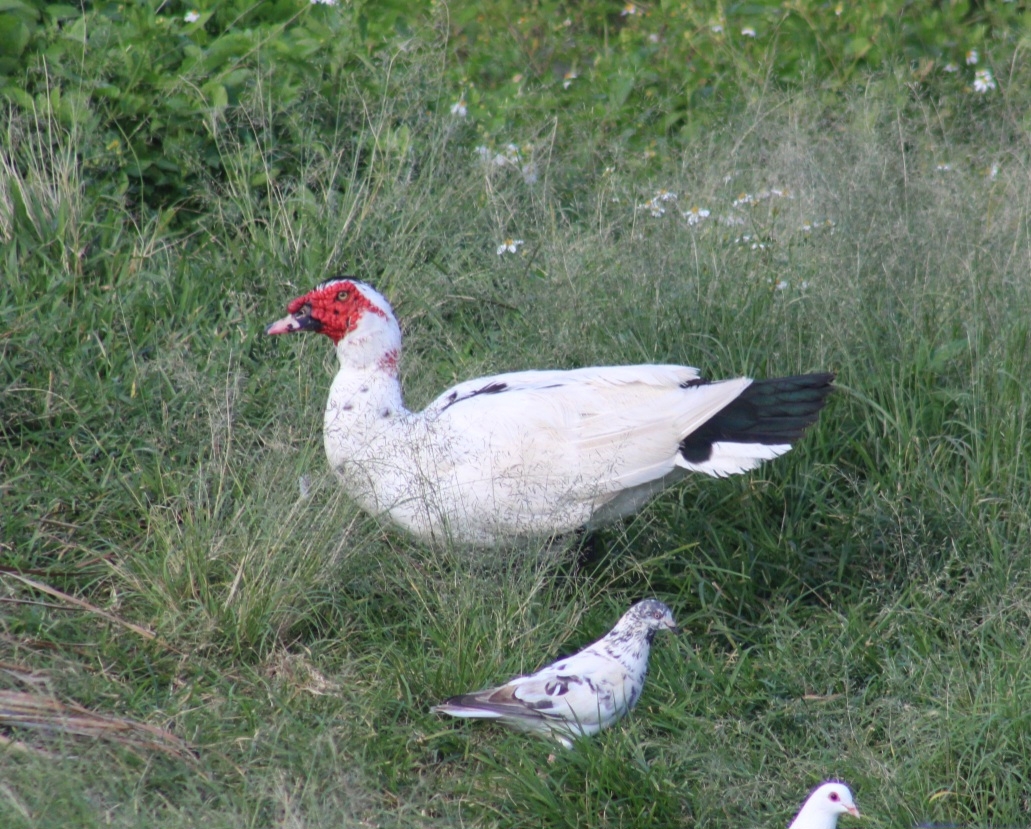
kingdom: Animalia
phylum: Chordata
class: Aves
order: Anseriformes
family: Anatidae
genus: Cairina
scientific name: Cairina moschata
